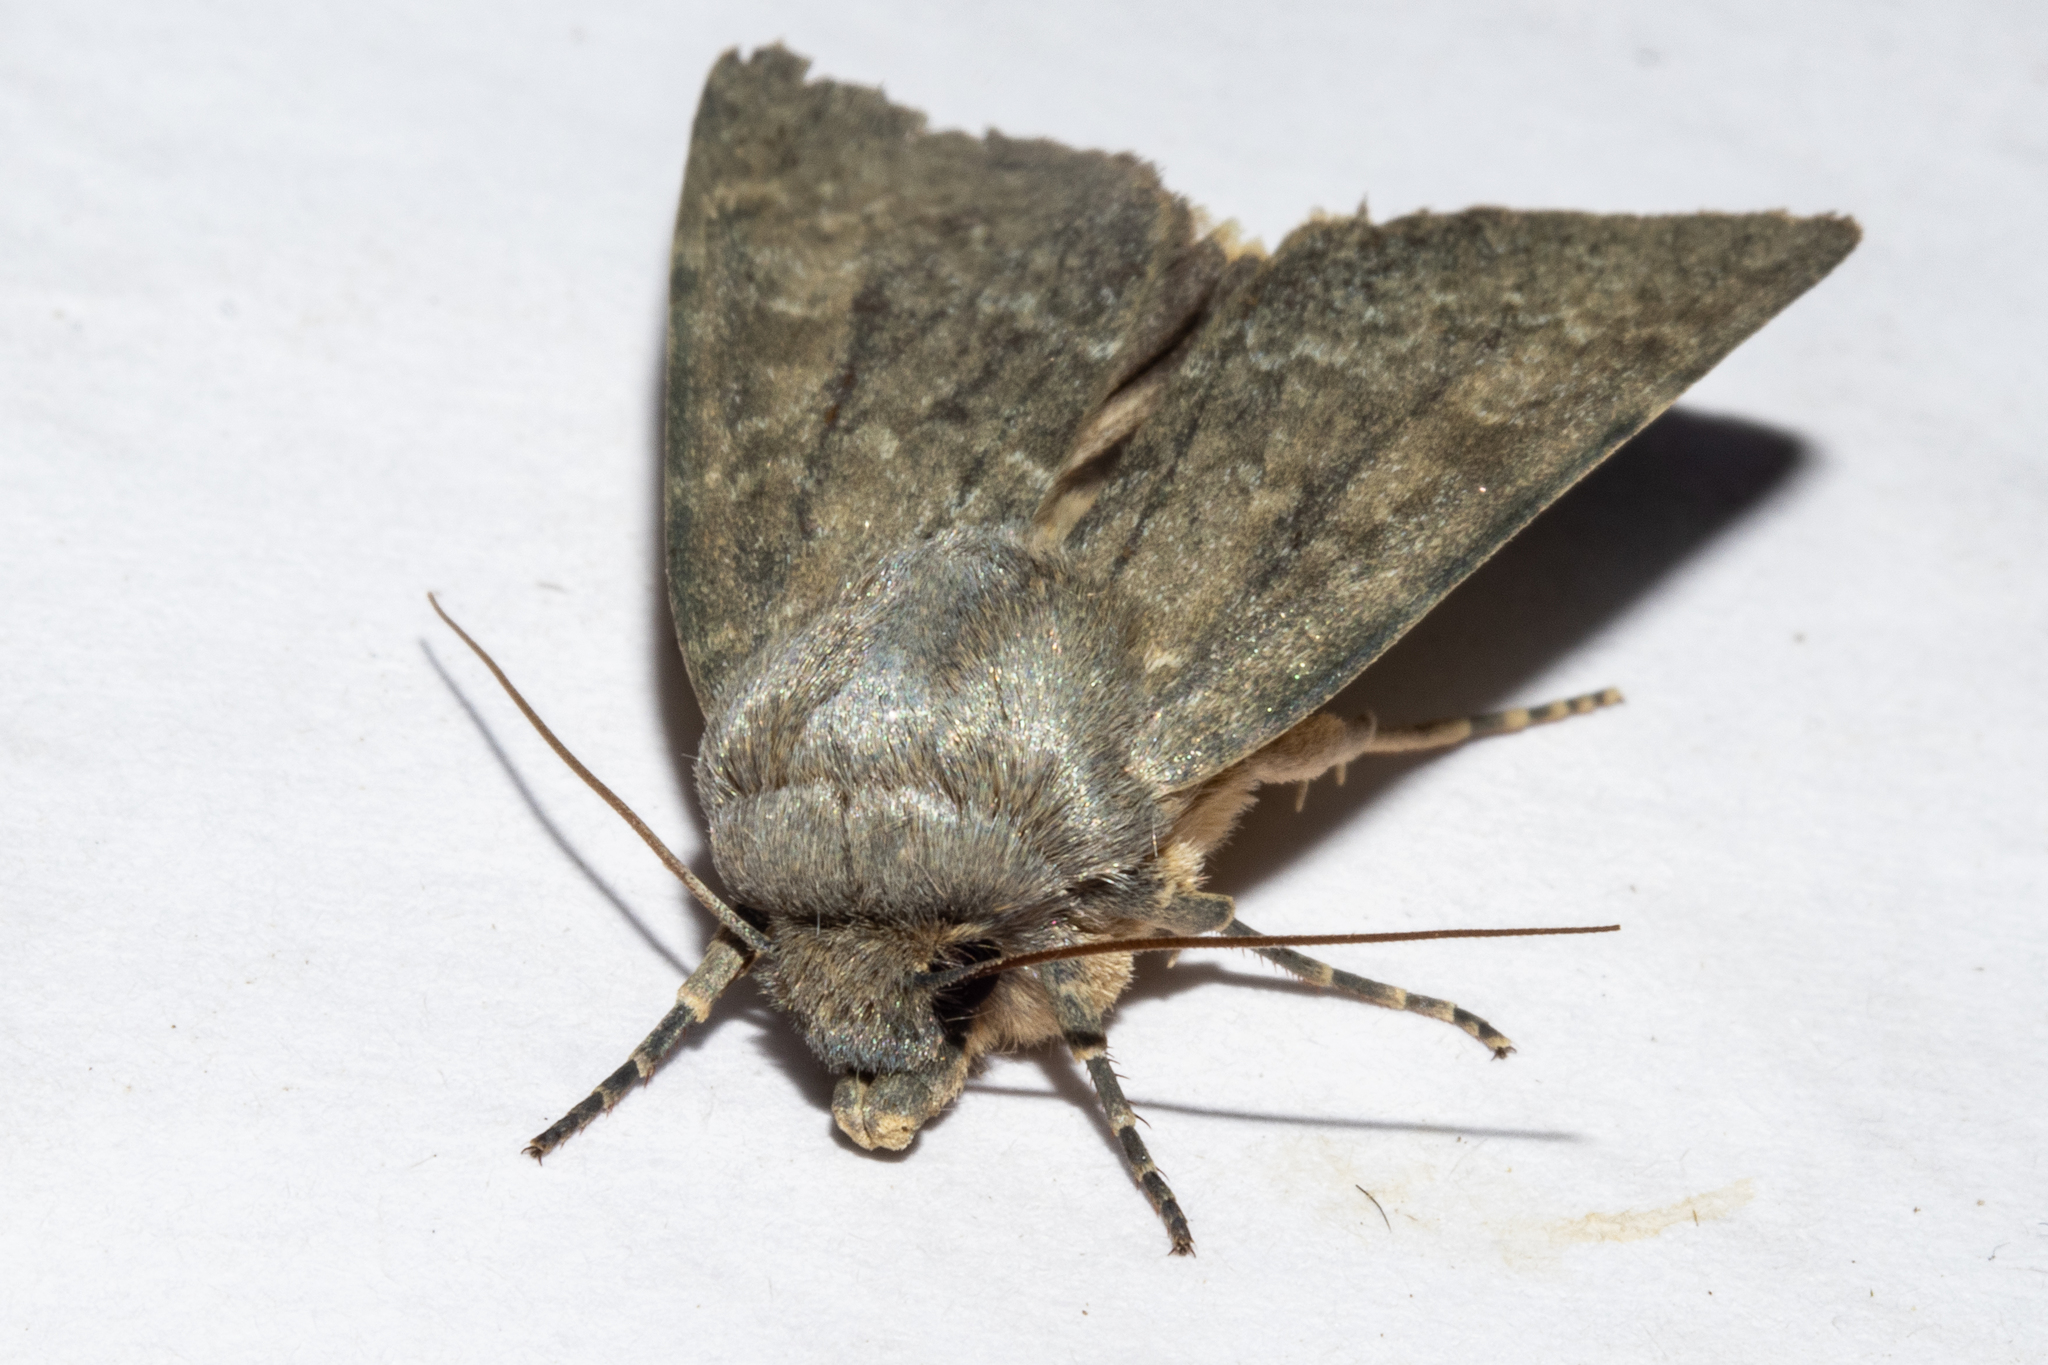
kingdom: Animalia
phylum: Arthropoda
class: Insecta
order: Lepidoptera
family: Noctuidae
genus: Physetica
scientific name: Physetica caerulea
